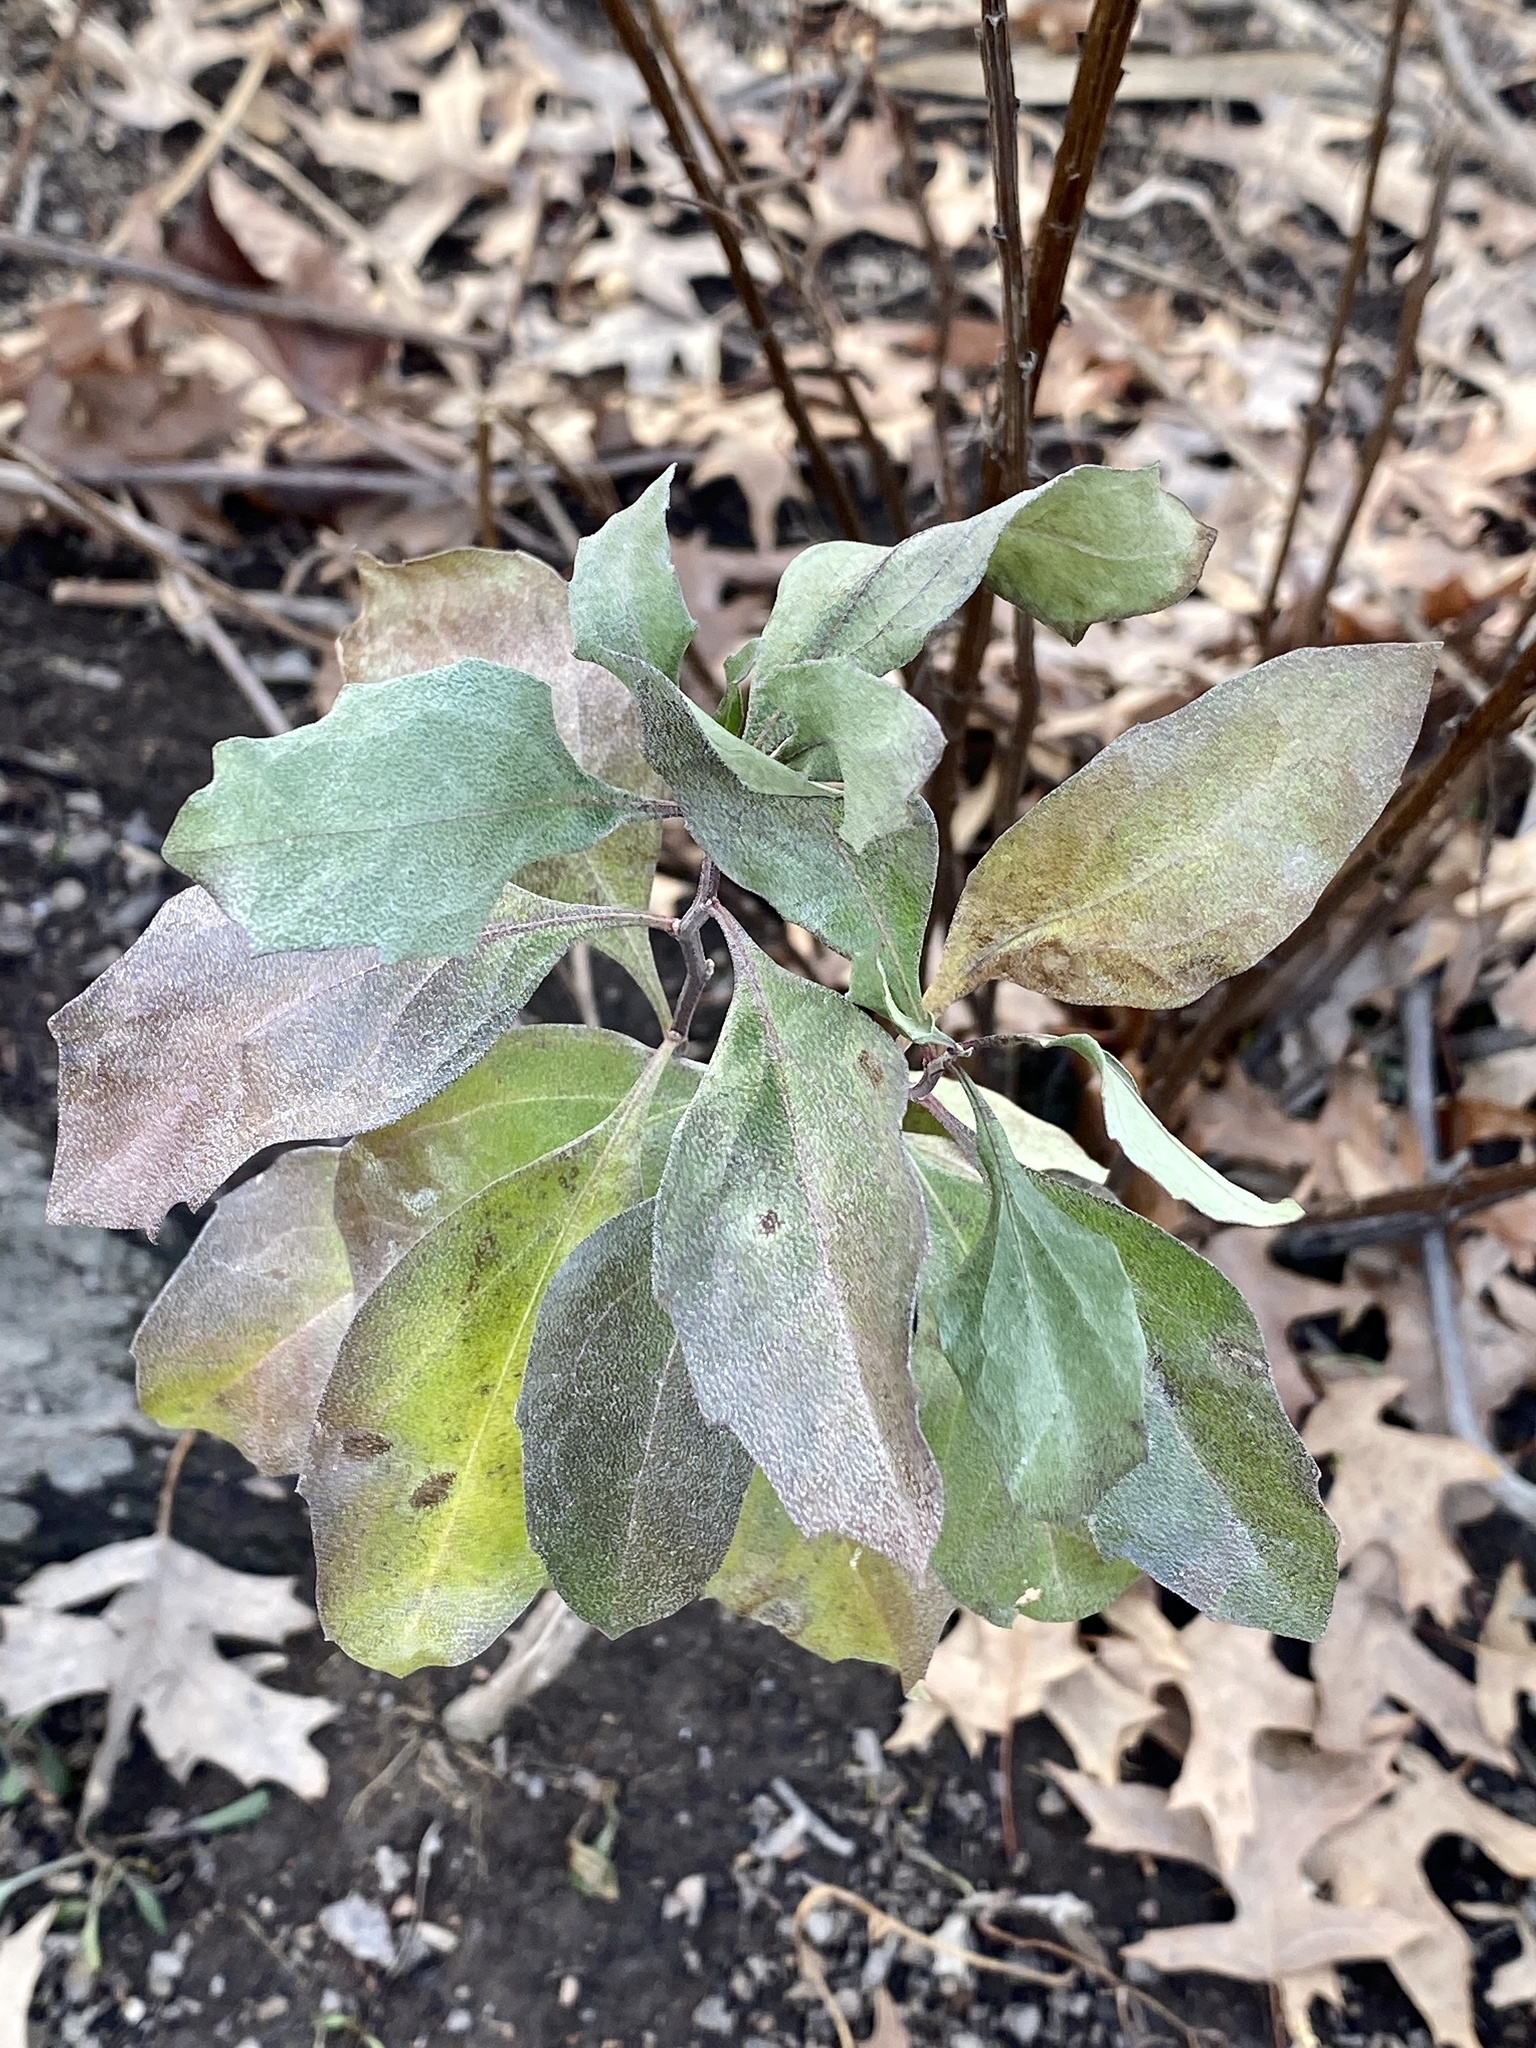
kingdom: Plantae
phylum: Tracheophyta
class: Magnoliopsida
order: Asterales
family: Asteraceae
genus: Baccharis
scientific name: Baccharis halimifolia
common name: Eastern baccharis
